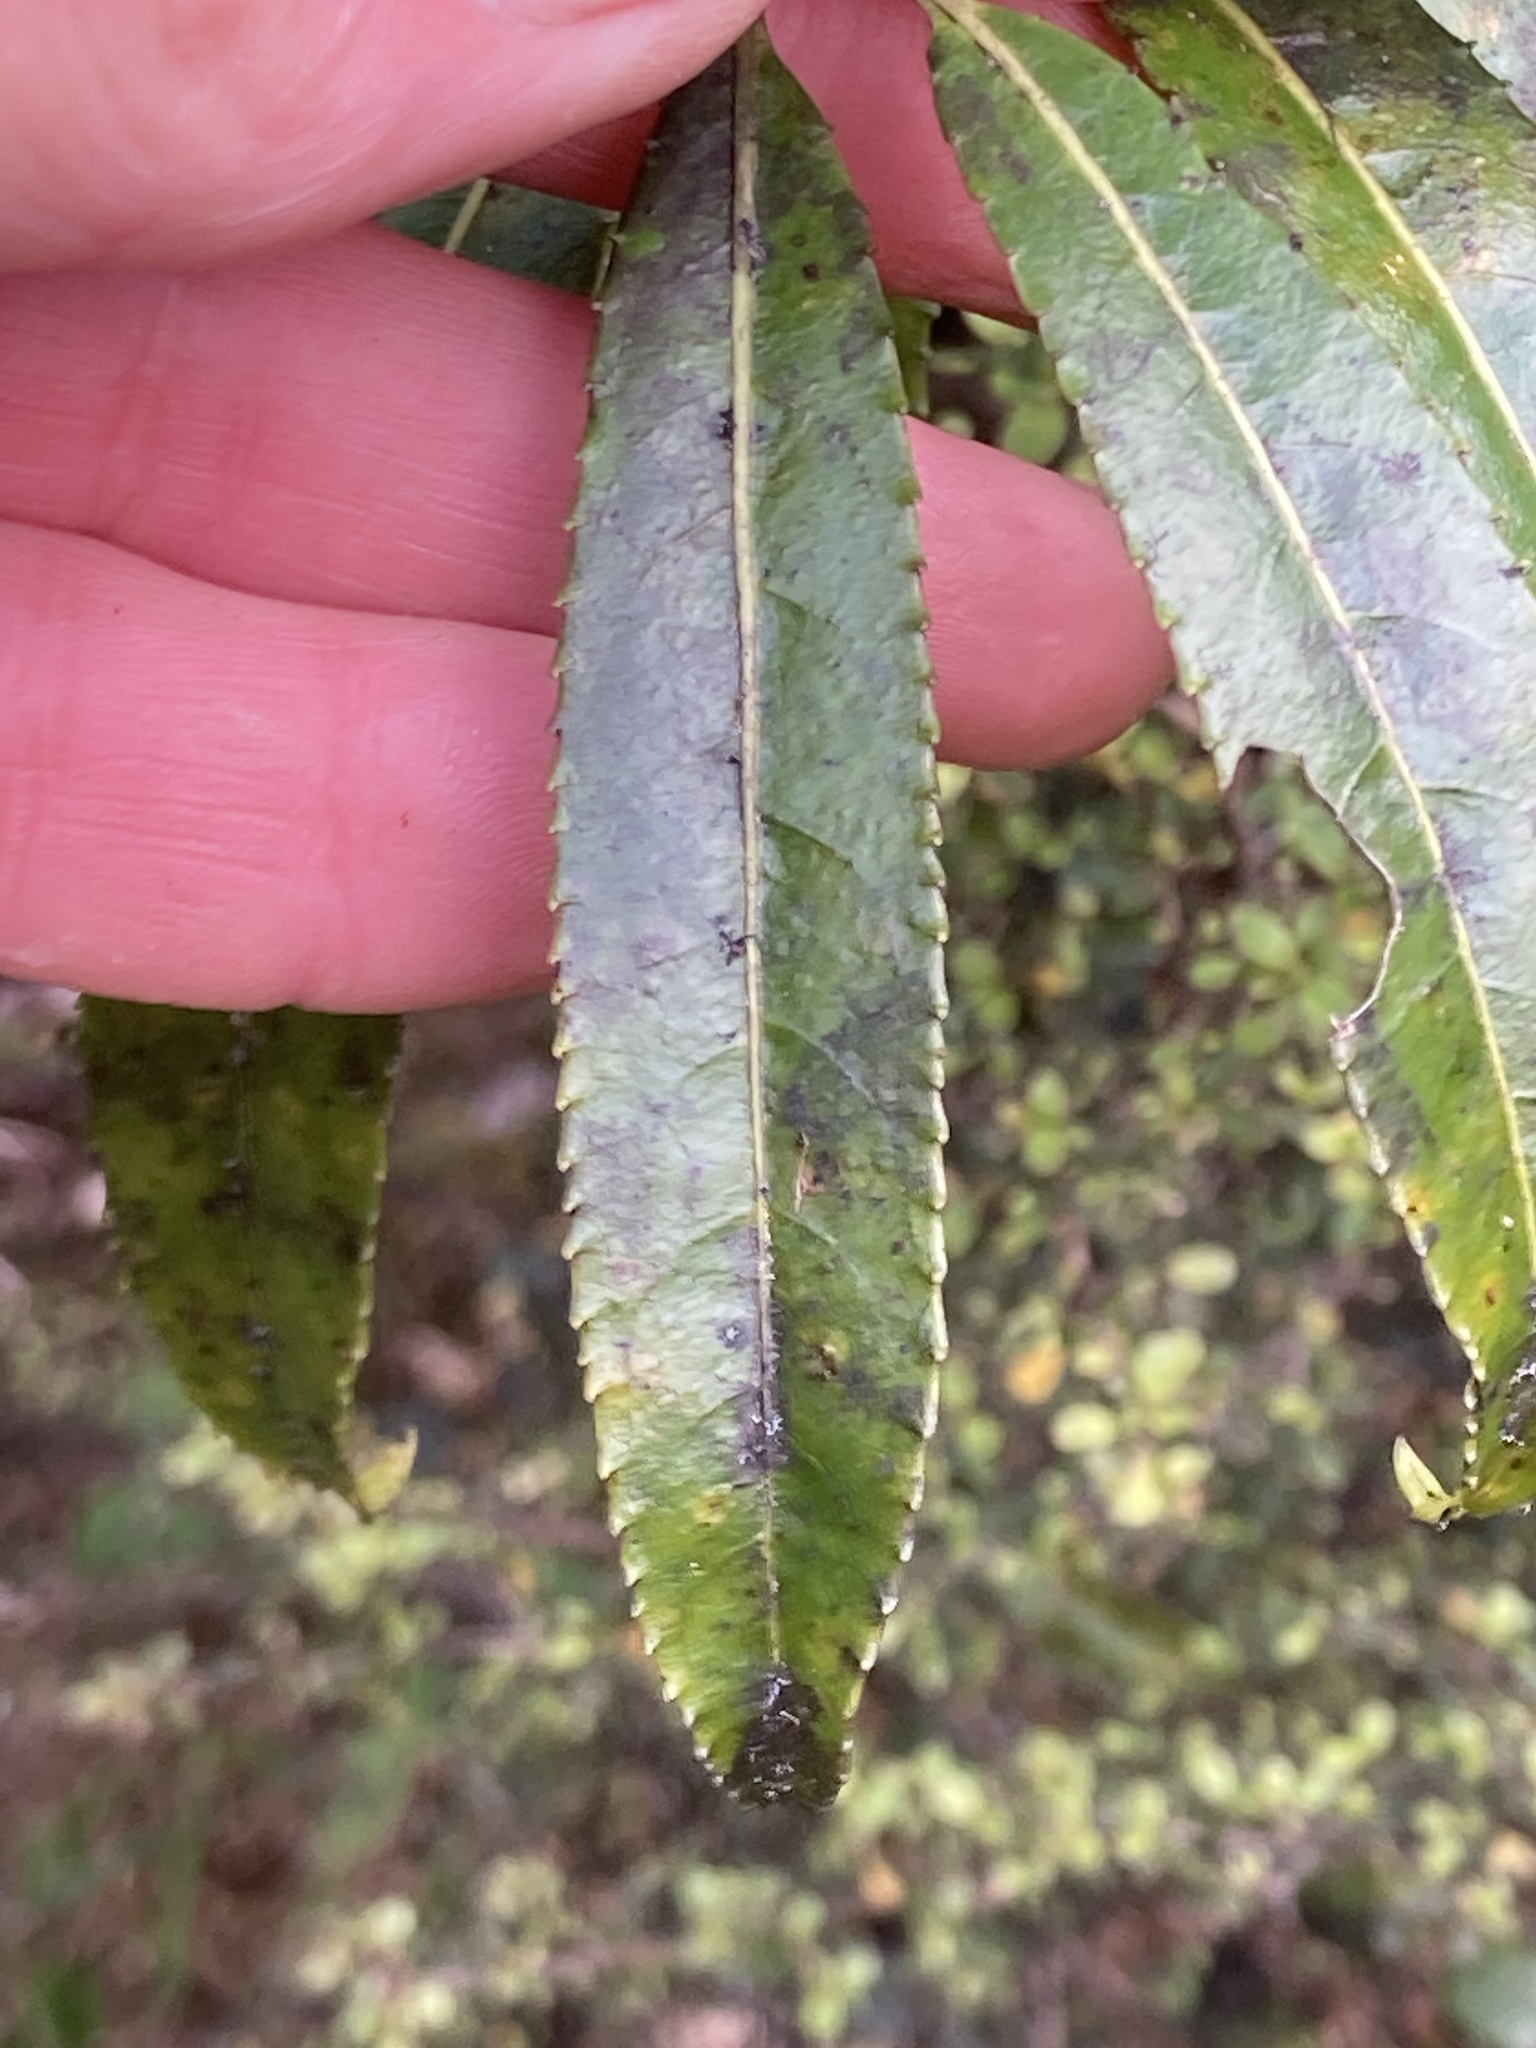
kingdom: Plantae
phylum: Tracheophyta
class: Magnoliopsida
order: Malpighiales
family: Violaceae
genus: Melicytus
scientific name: Melicytus lanceolatus
